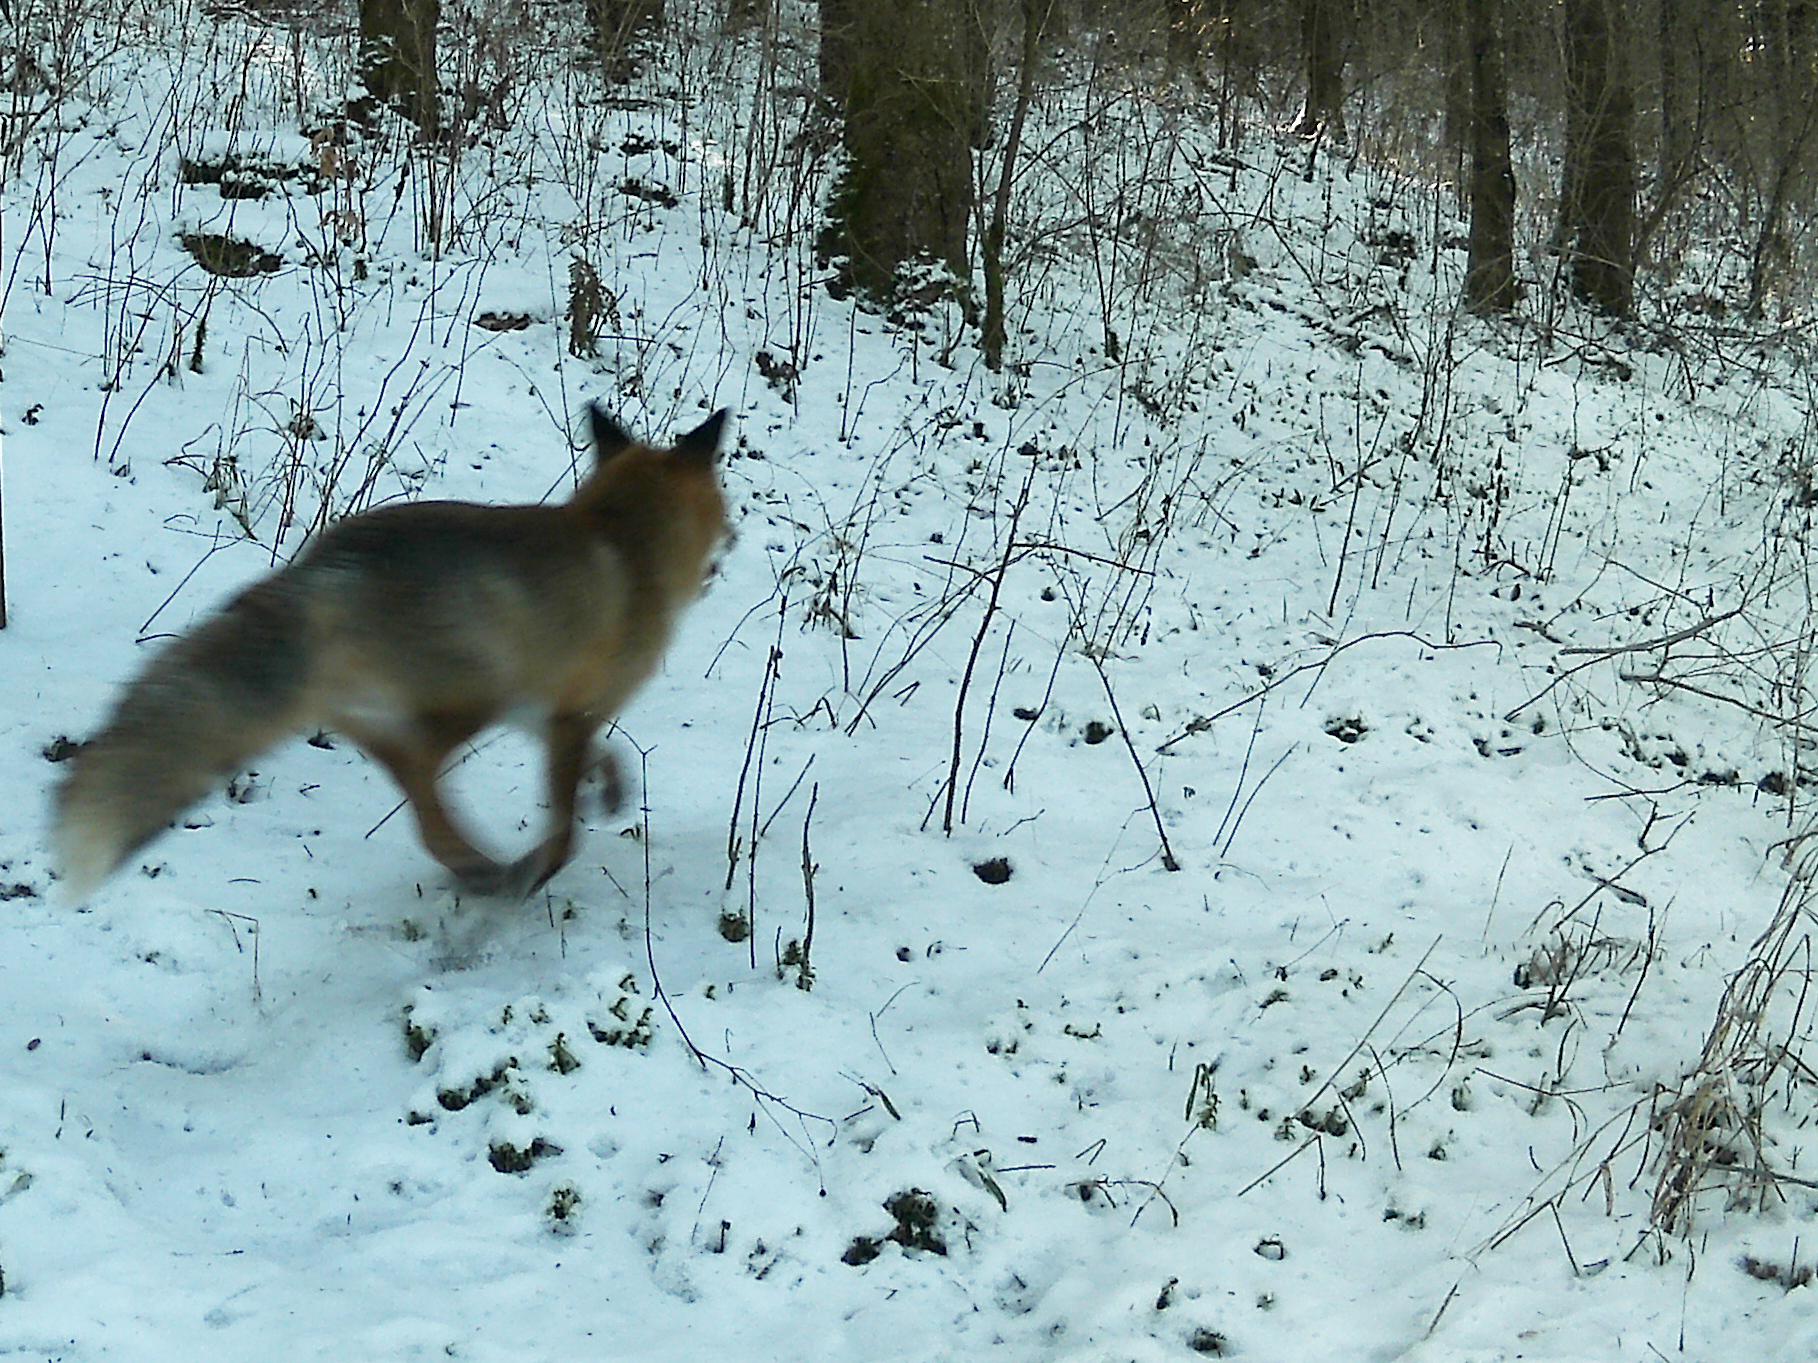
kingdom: Animalia
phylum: Chordata
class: Mammalia
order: Carnivora
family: Canidae
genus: Vulpes
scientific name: Vulpes vulpes
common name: Red fox
